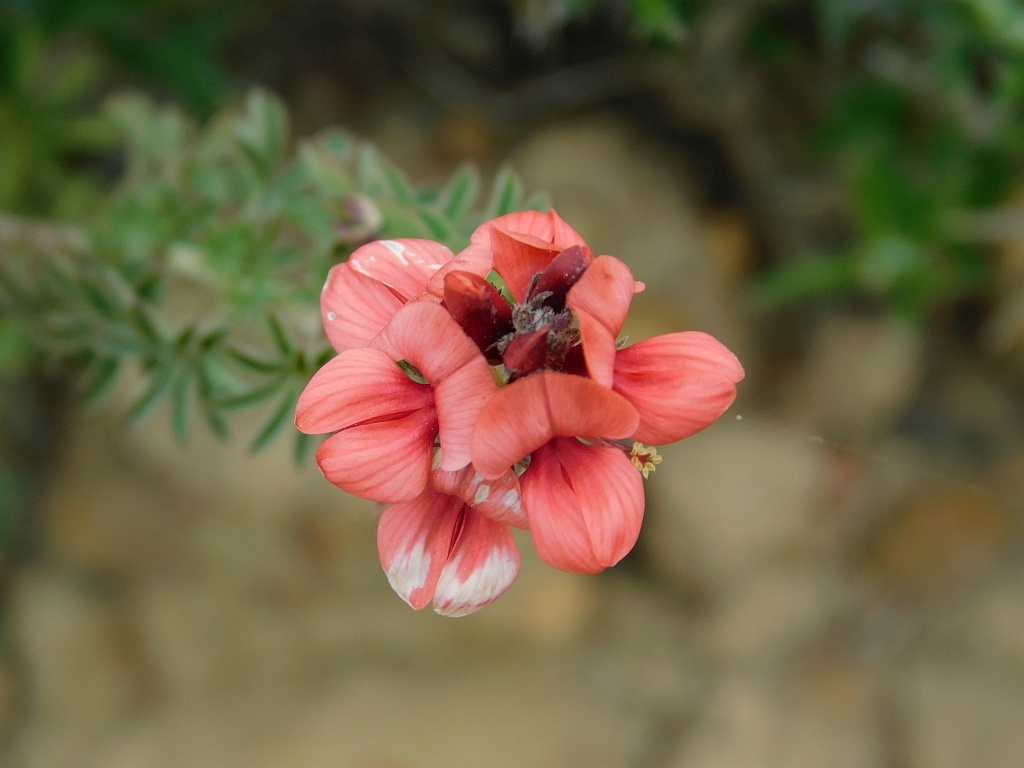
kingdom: Plantae
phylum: Tracheophyta
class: Magnoliopsida
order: Fabales
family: Fabaceae
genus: Indigofera
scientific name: Indigofera digitata
